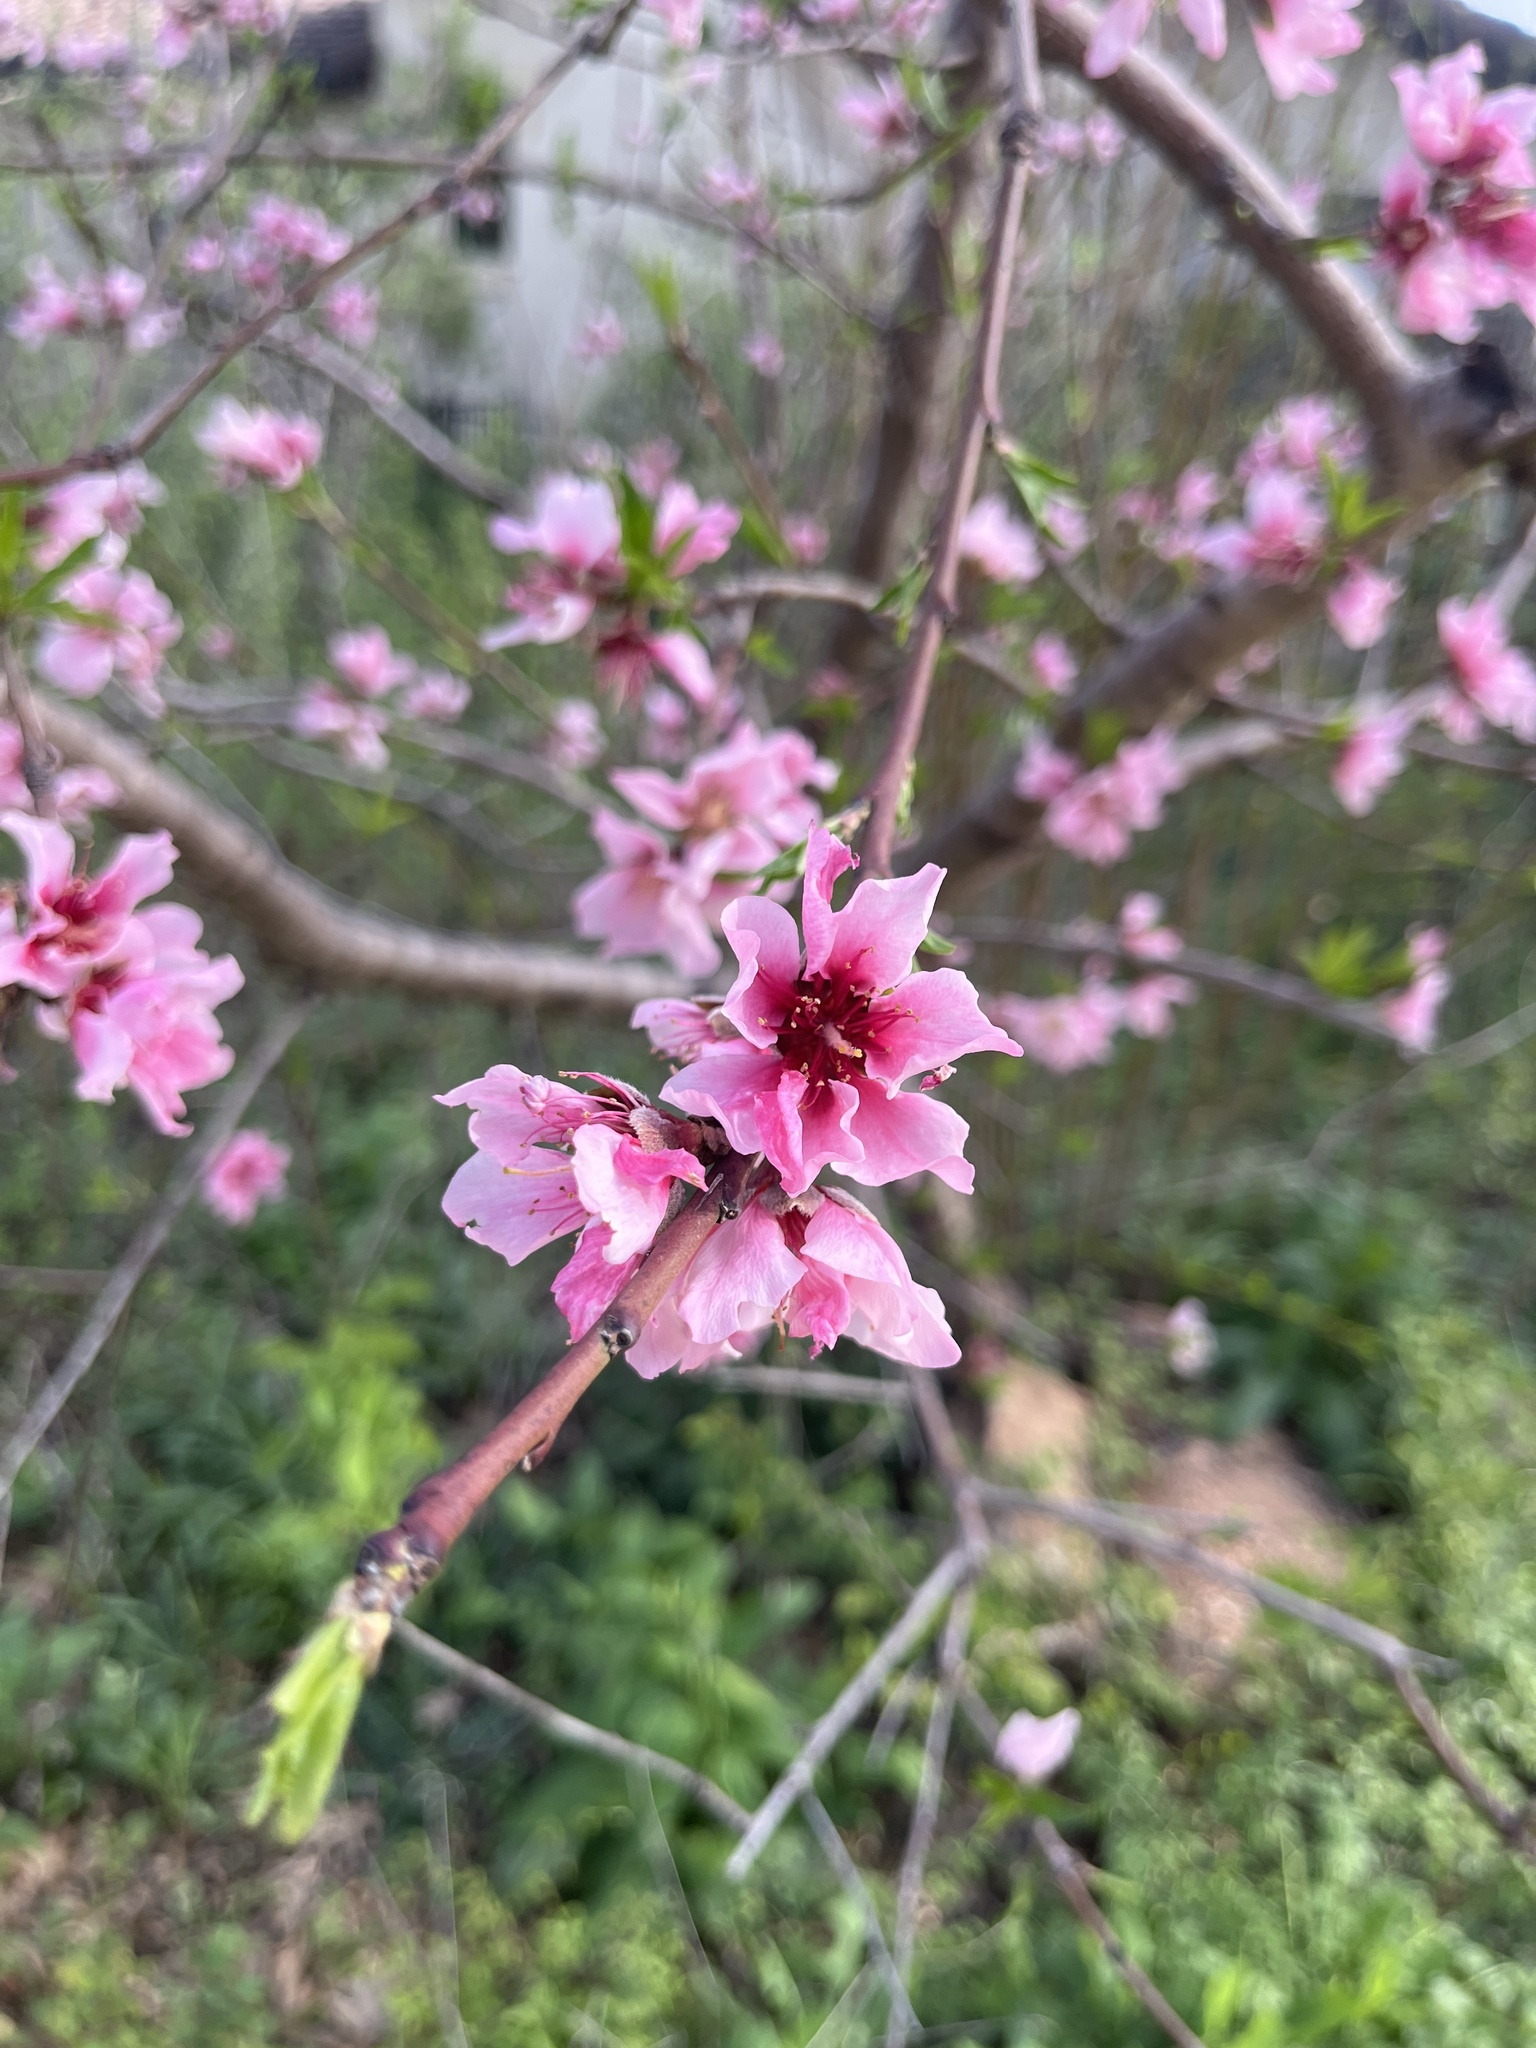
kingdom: Plantae
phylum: Tracheophyta
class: Magnoliopsida
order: Rosales
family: Rosaceae
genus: Prunus
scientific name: Prunus persica
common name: Peach
